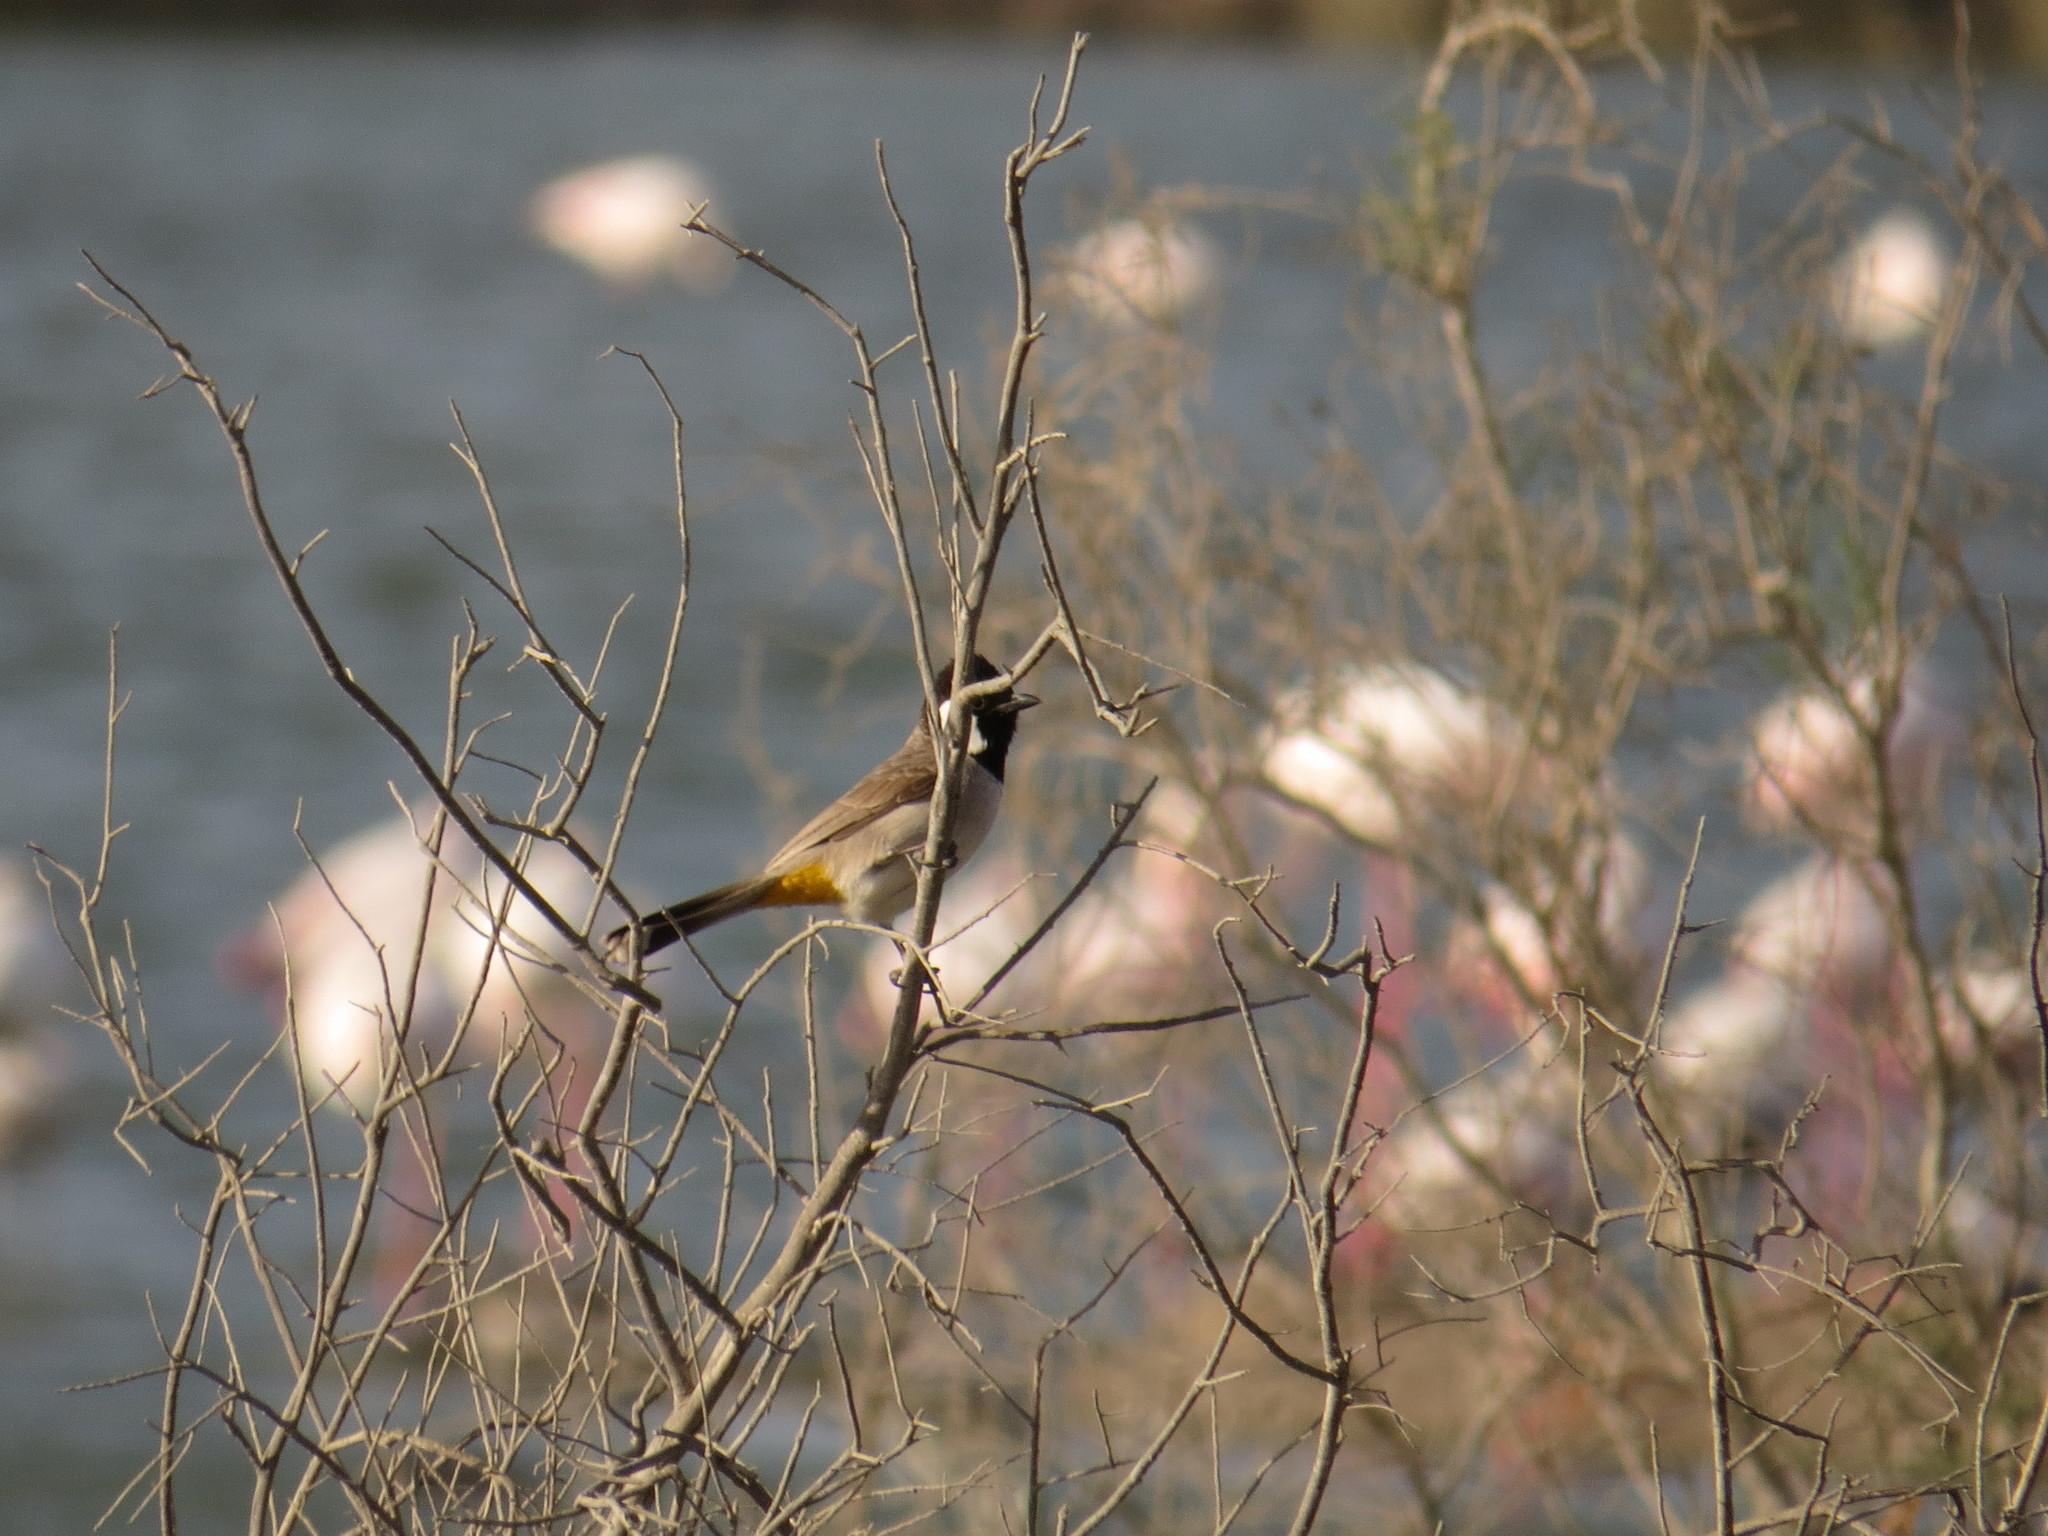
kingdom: Animalia
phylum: Chordata
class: Aves
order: Passeriformes
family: Pycnonotidae
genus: Pycnonotus
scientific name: Pycnonotus leucotis
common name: White-eared bulbul
